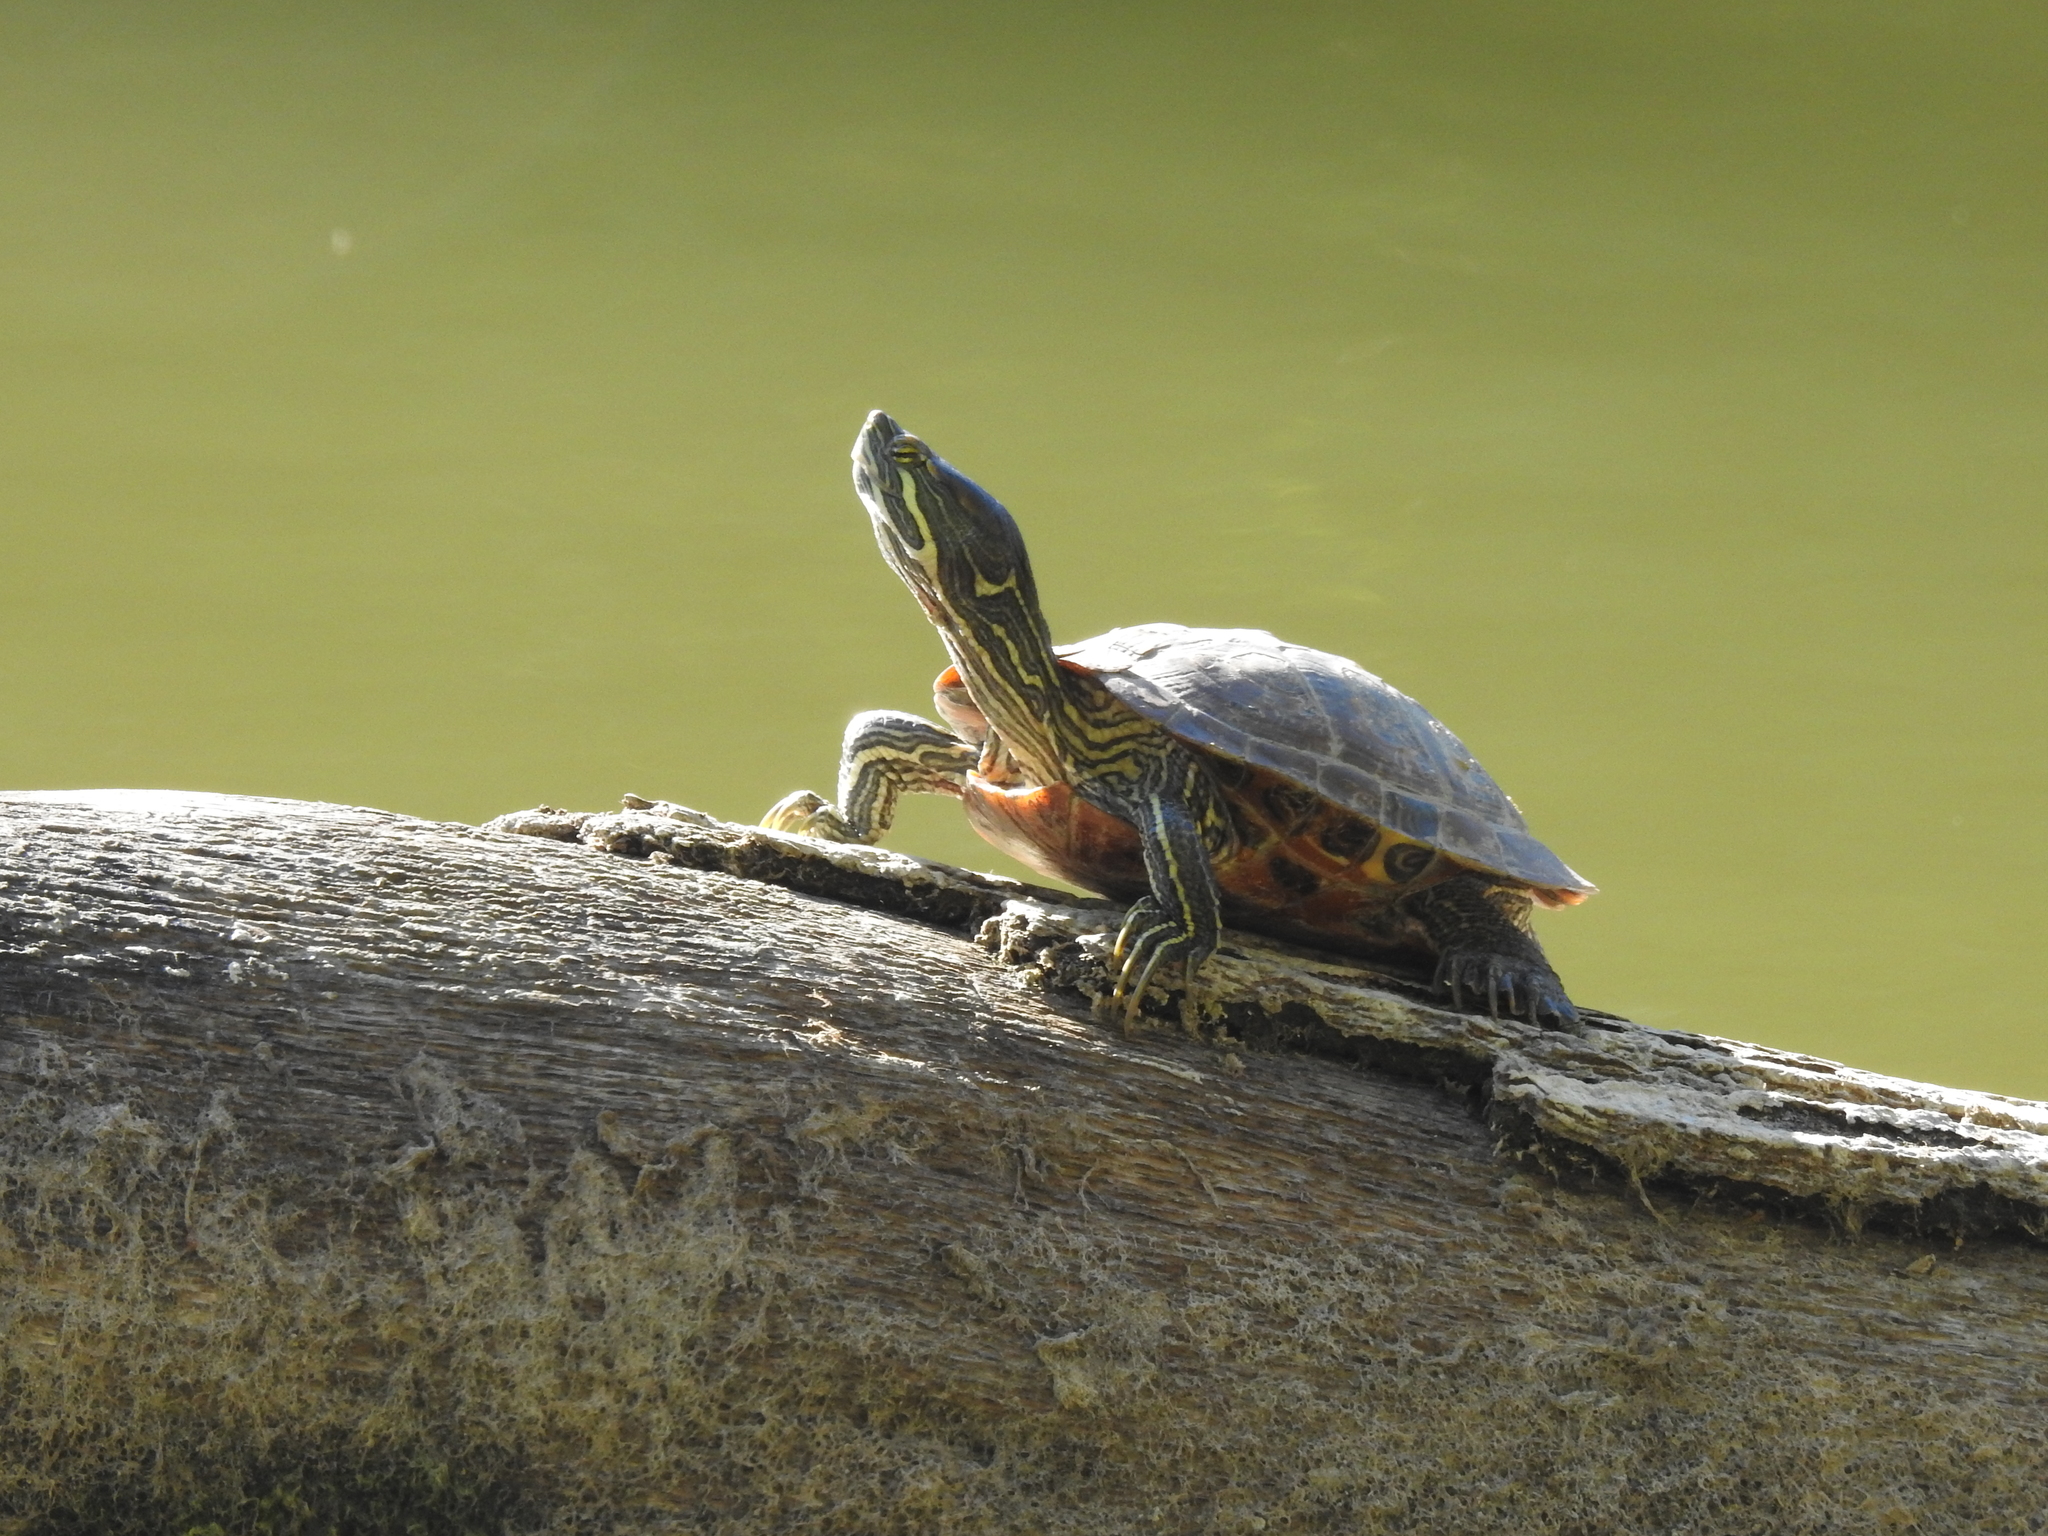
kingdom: Animalia
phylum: Chordata
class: Testudines
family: Emydidae
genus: Trachemys
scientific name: Trachemys scripta
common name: Slider
